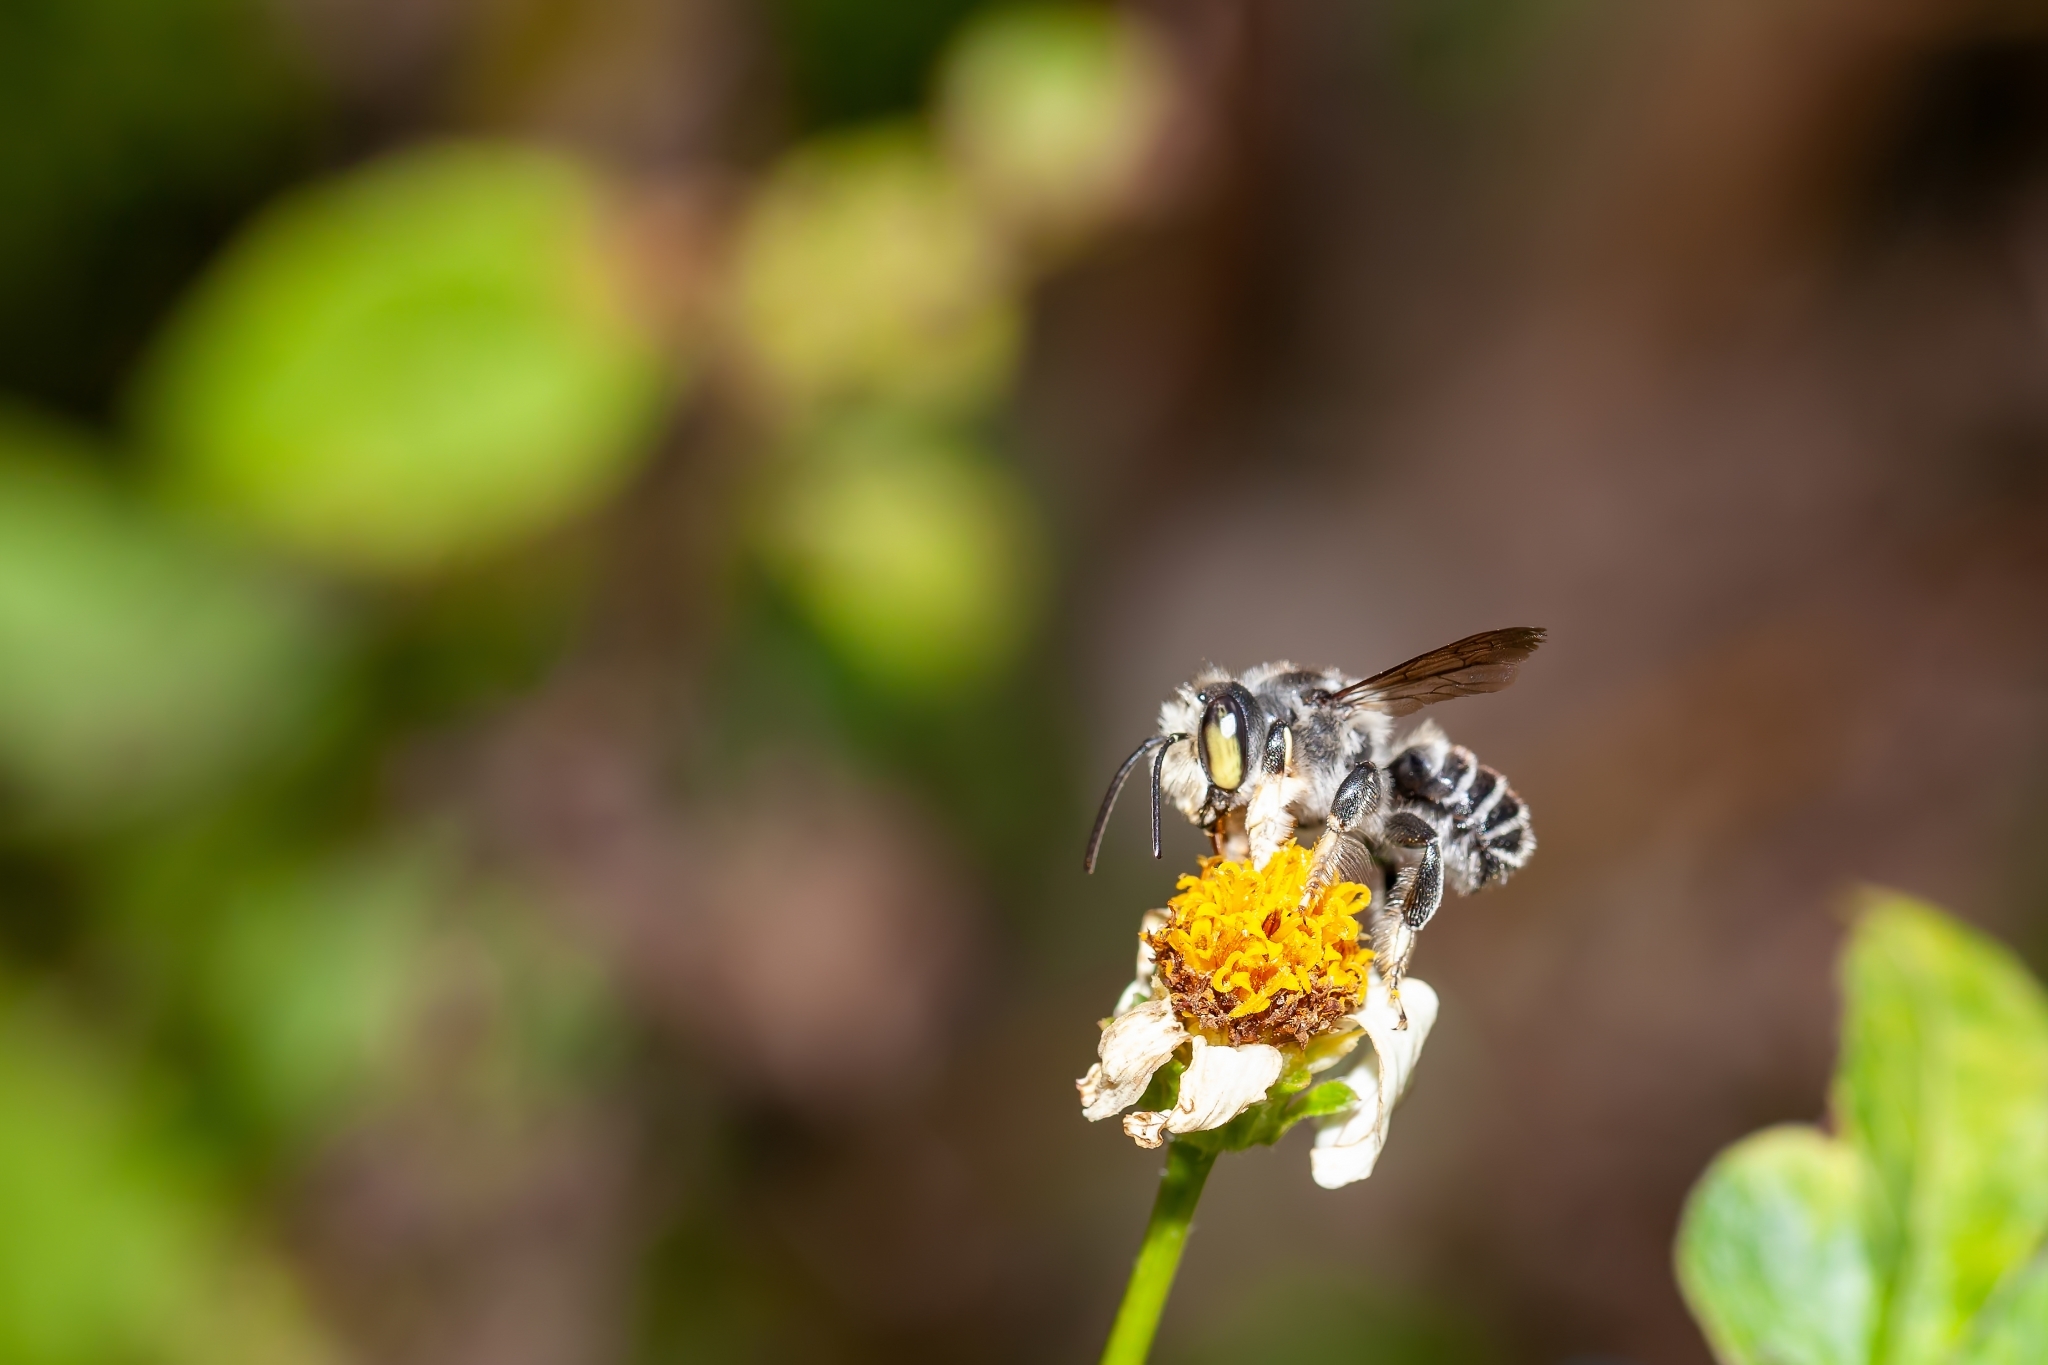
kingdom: Animalia
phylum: Arthropoda
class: Insecta
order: Hymenoptera
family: Megachilidae
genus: Megachile
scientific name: Megachile pruina
